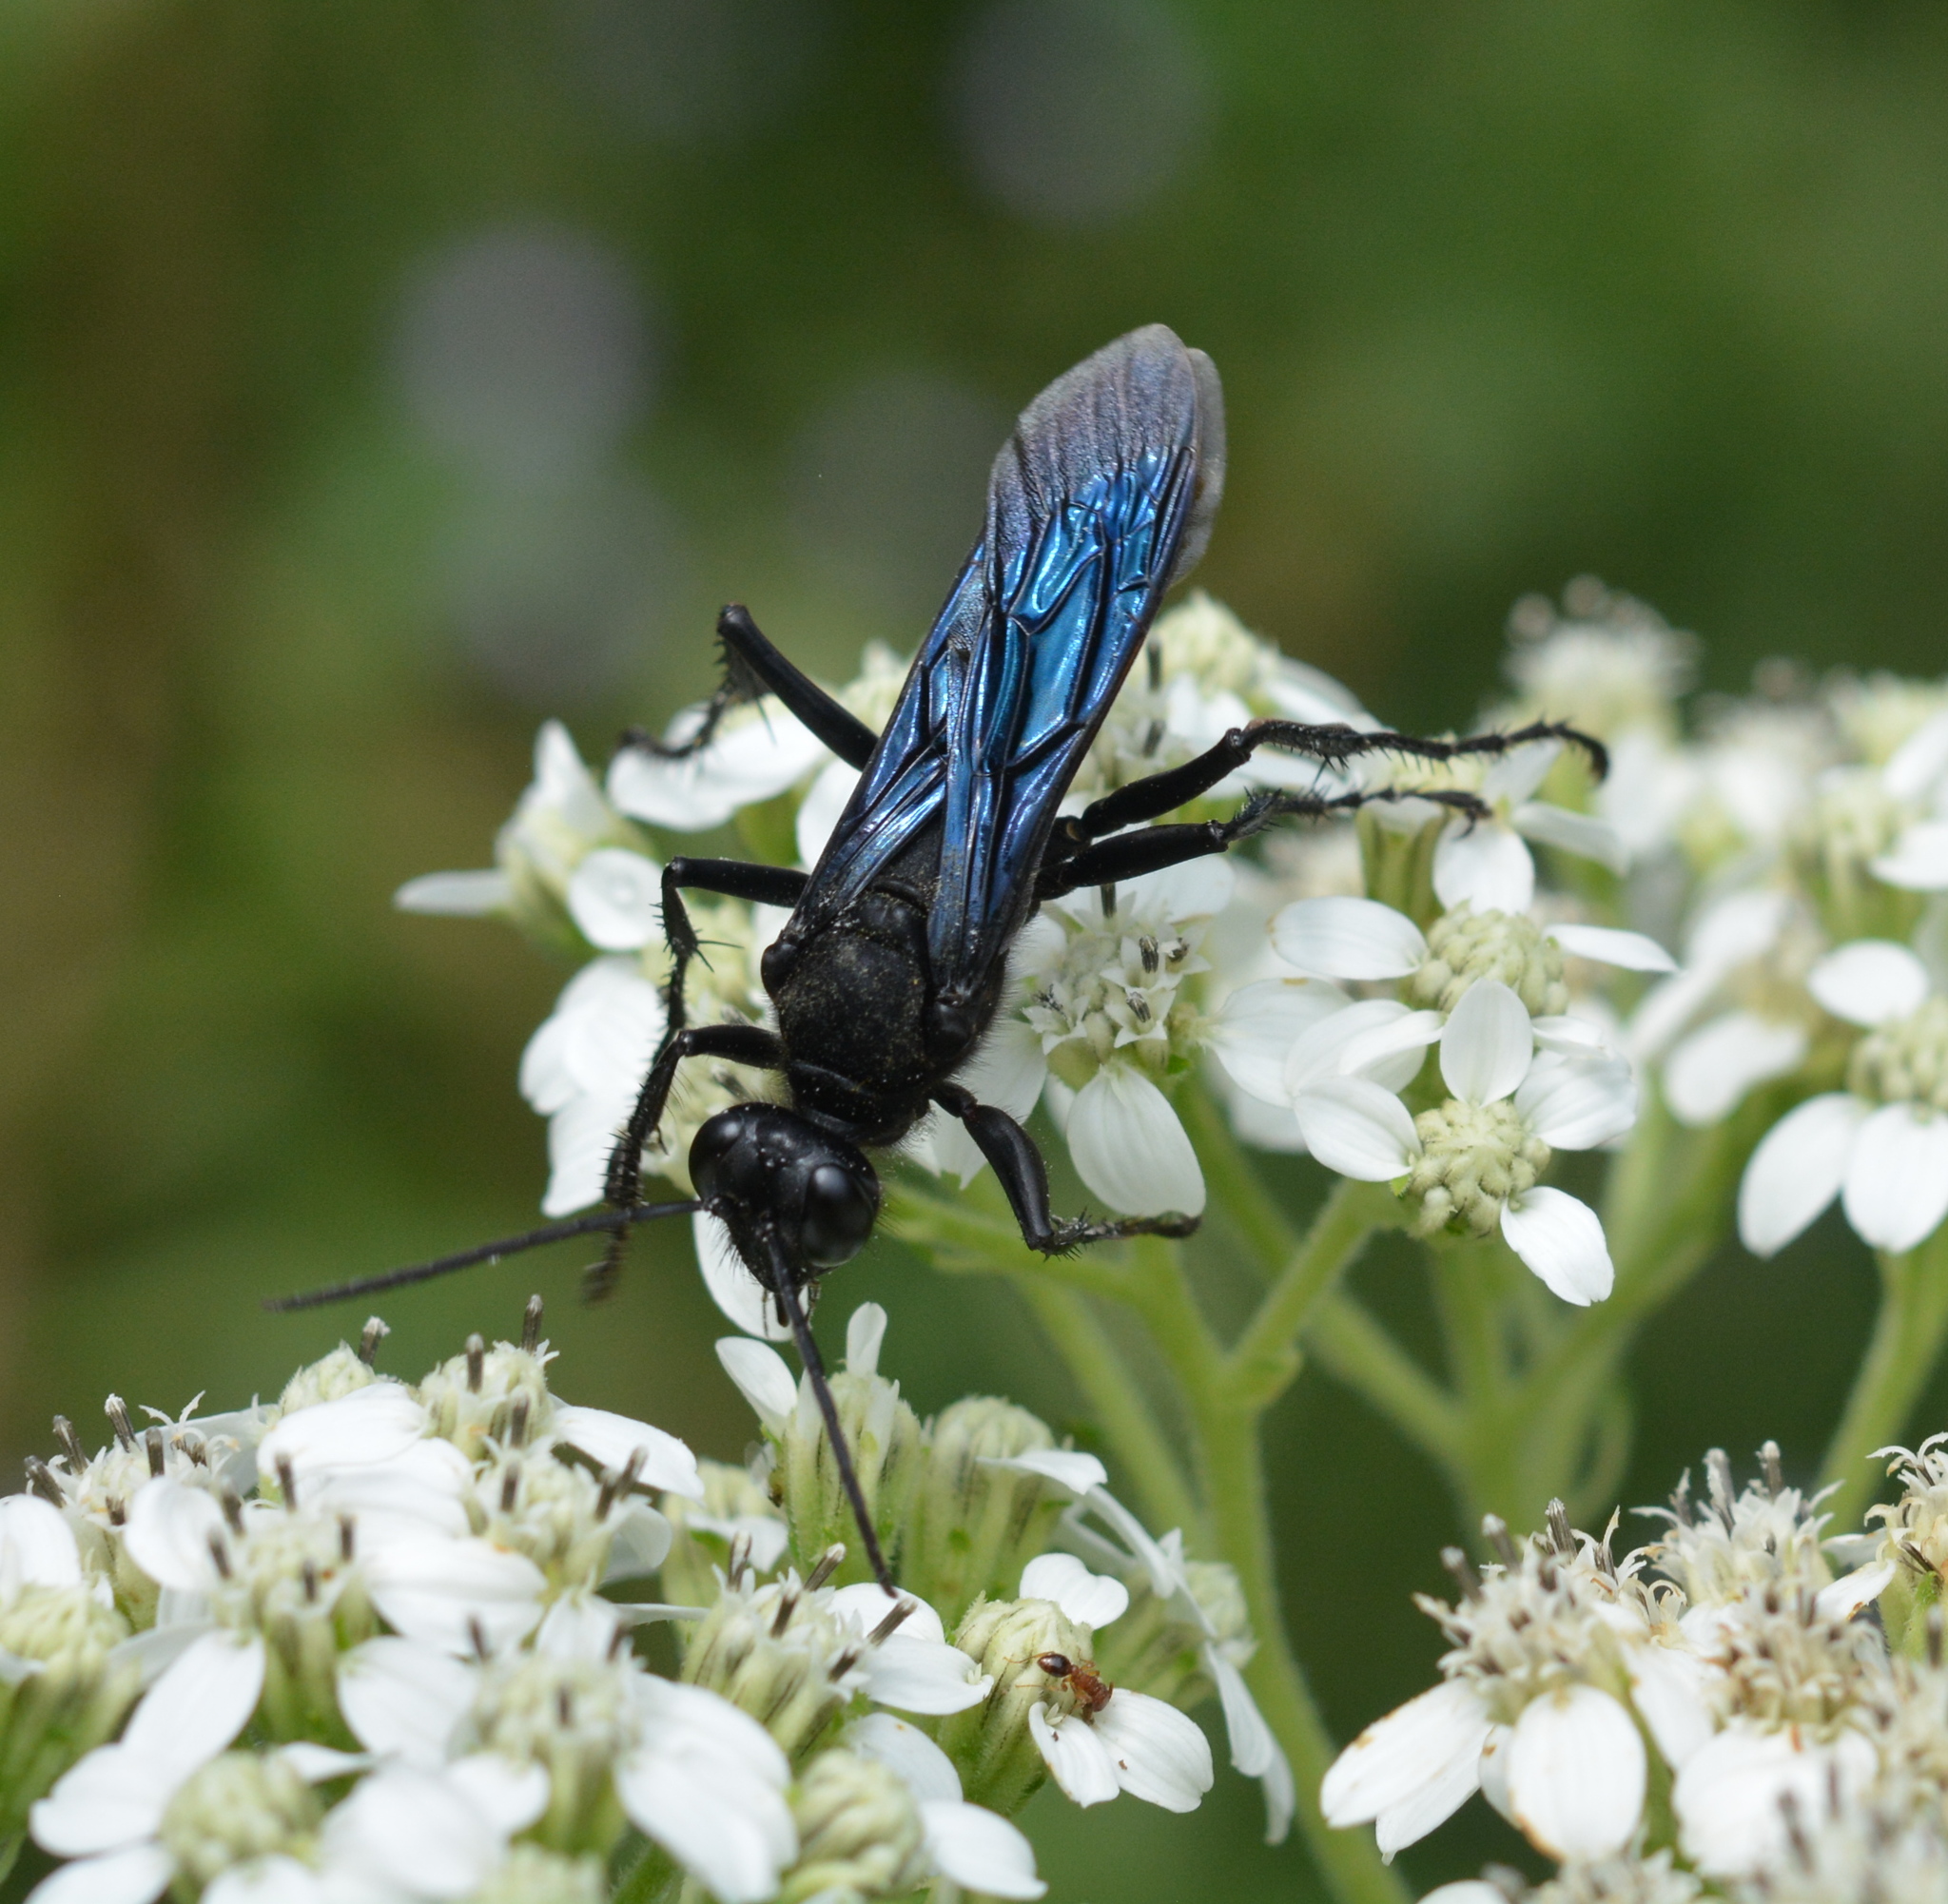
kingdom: Animalia
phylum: Arthropoda
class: Insecta
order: Hymenoptera
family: Sphecidae
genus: Sphex
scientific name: Sphex pensylvanicus
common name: Great black digger wasp
